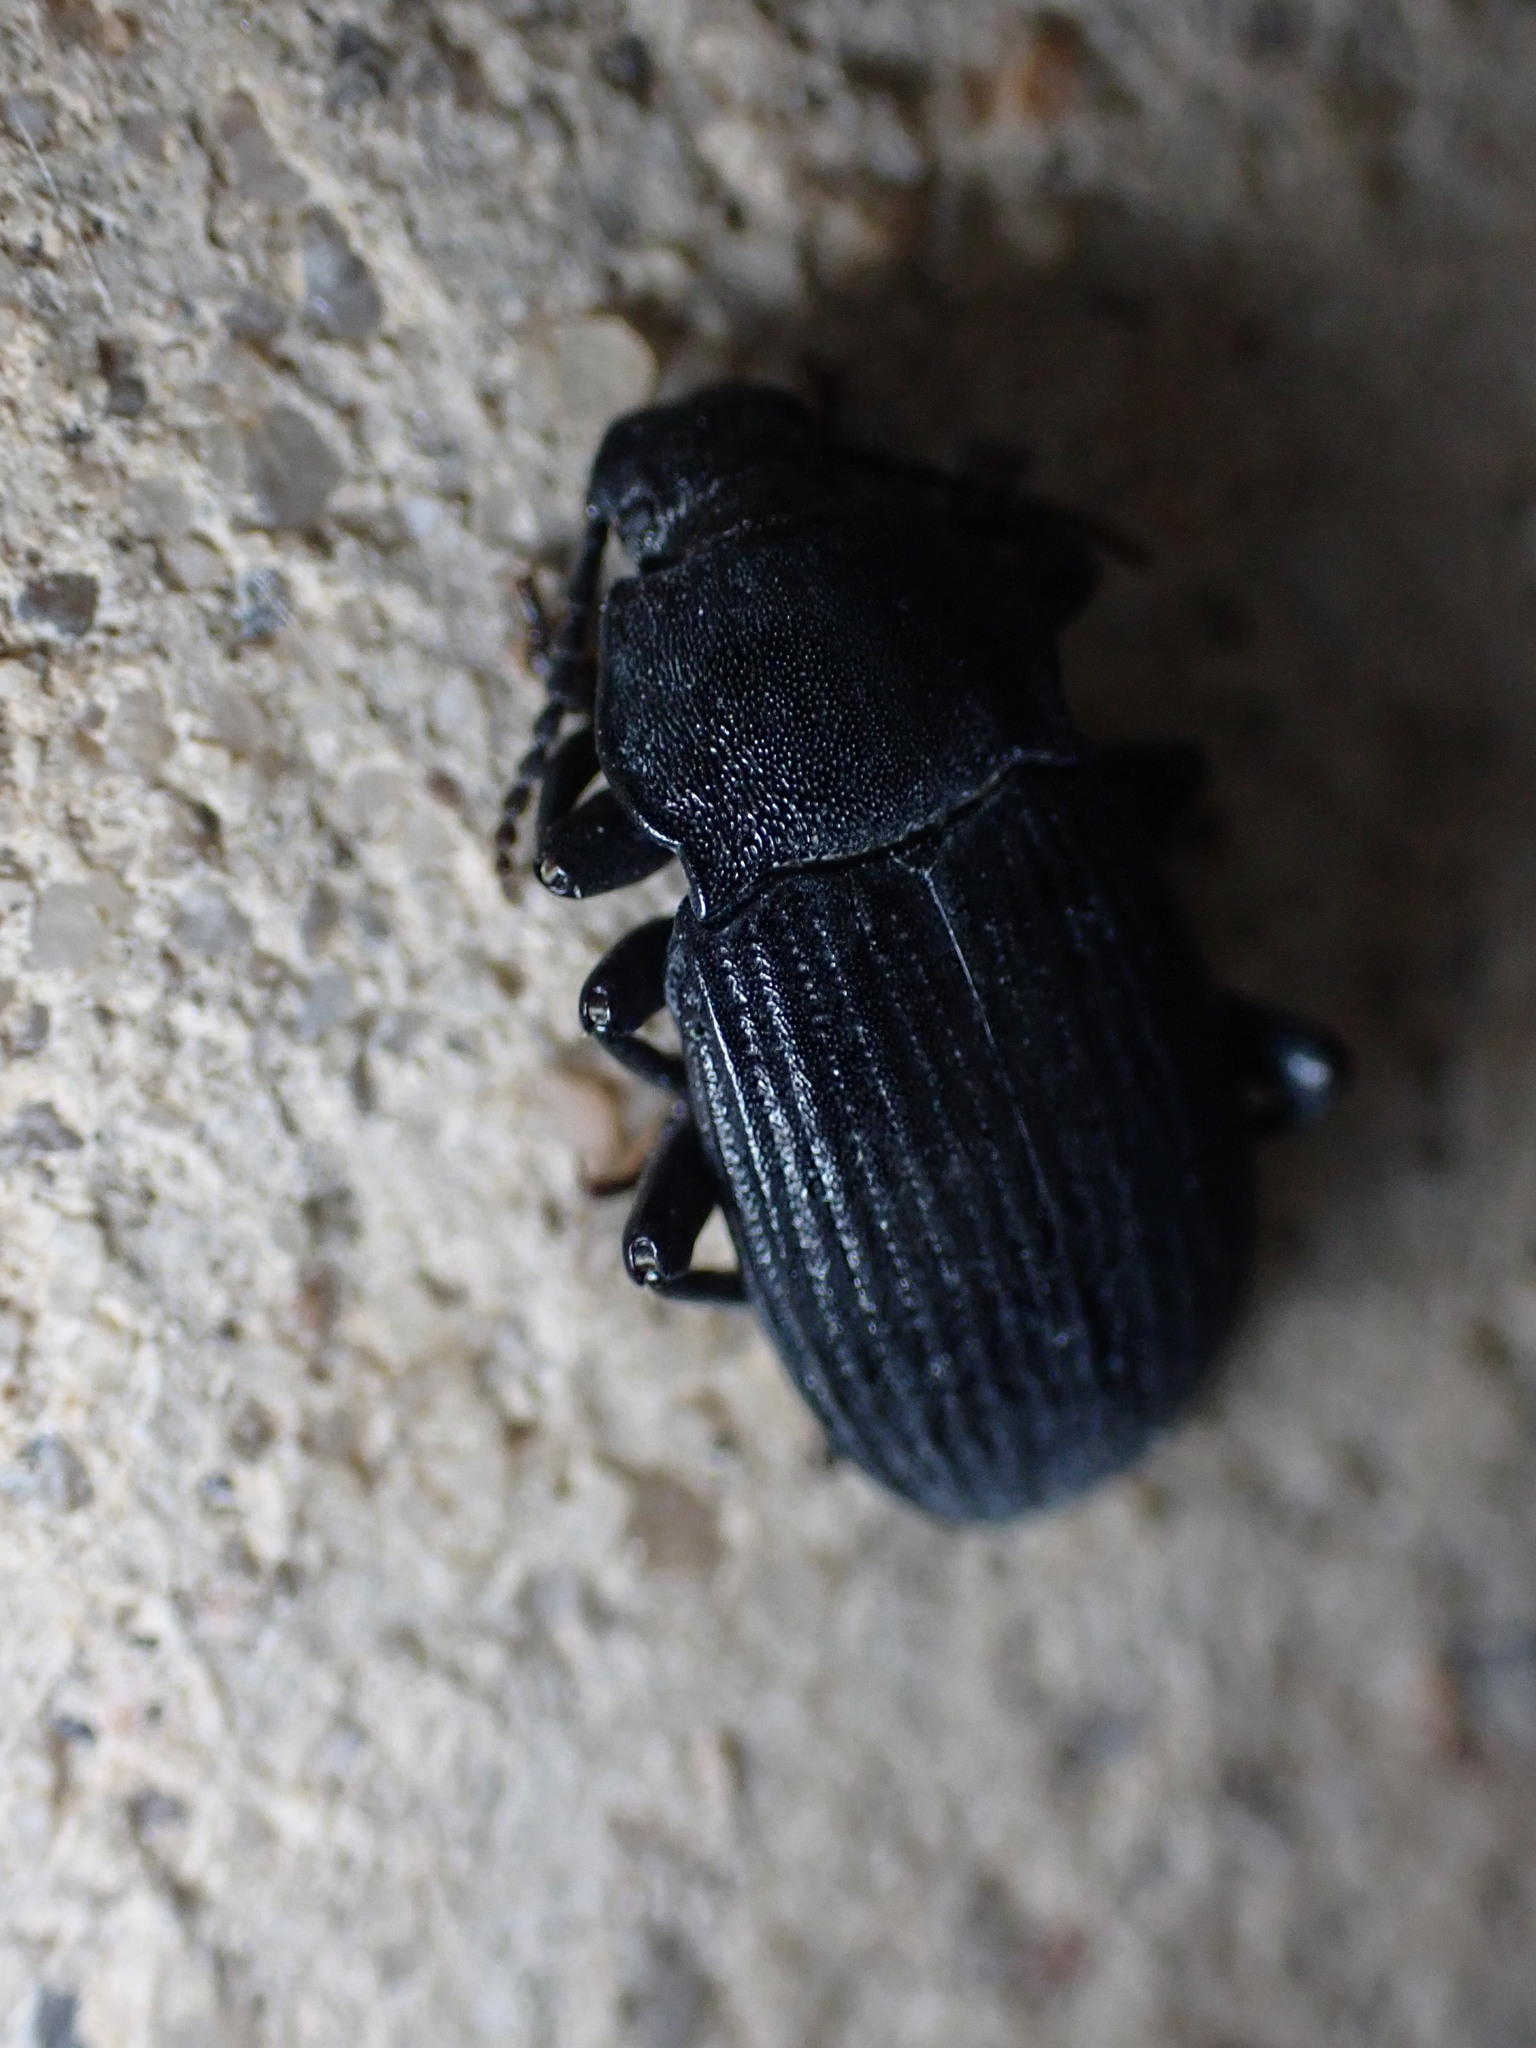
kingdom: Animalia
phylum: Arthropoda
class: Insecta
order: Coleoptera
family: Tenebrionidae
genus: Dendarus
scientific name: Dendarus coarcticollis
